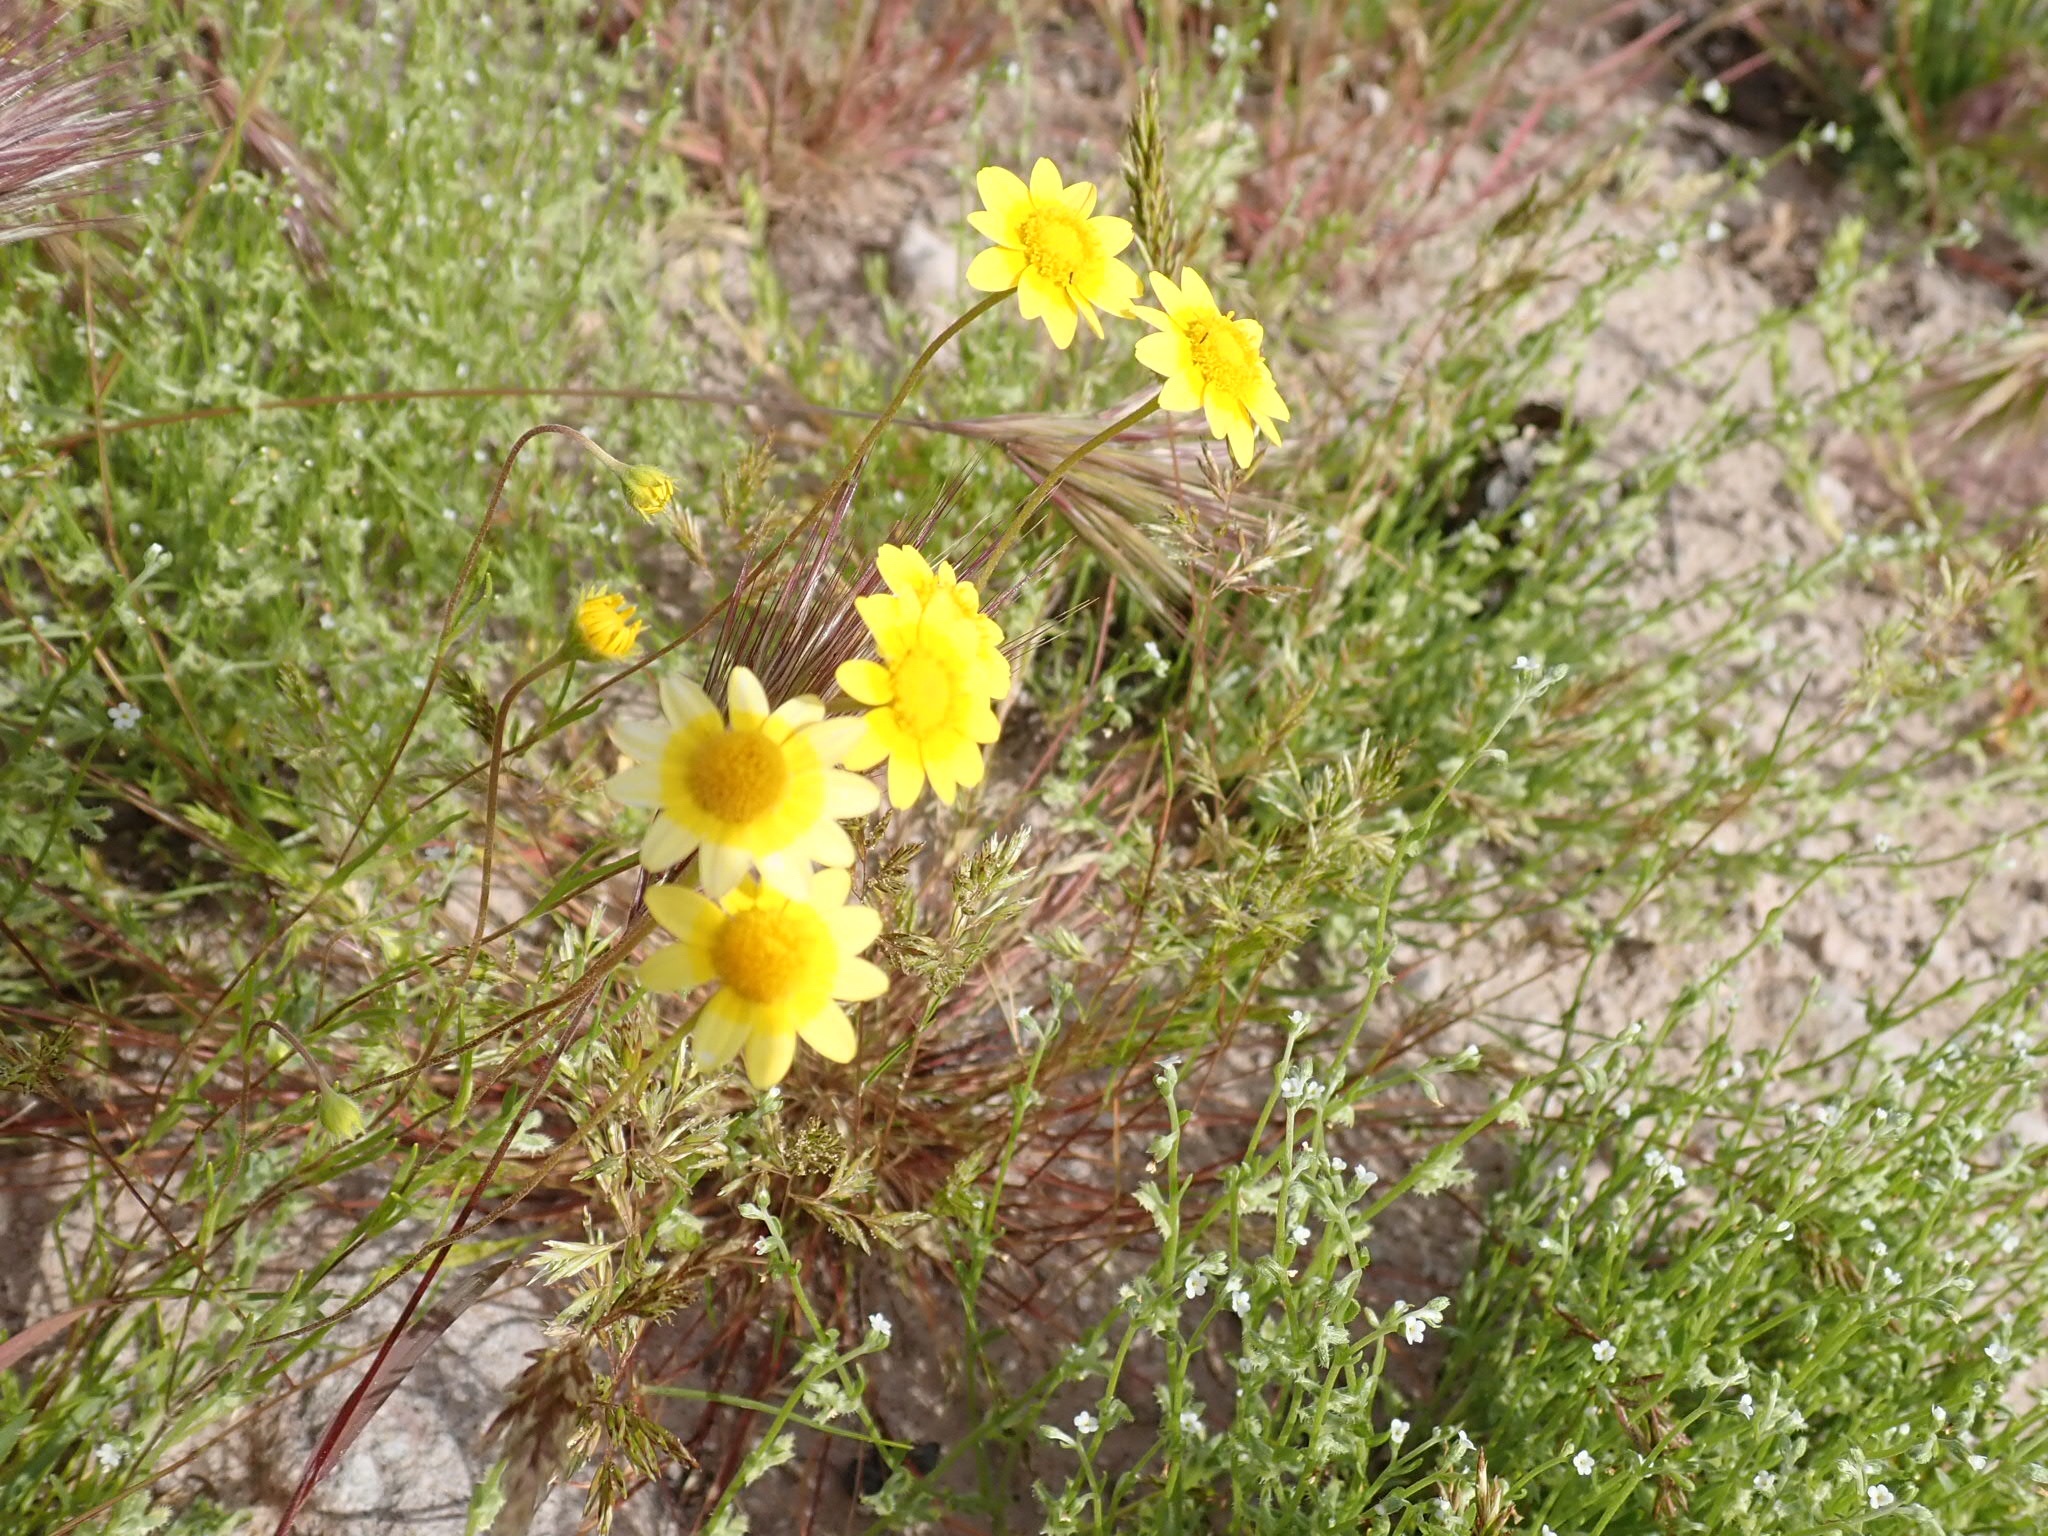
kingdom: Plantae
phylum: Tracheophyta
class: Magnoliopsida
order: Asterales
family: Asteraceae
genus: Lasthenia
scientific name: Lasthenia gracilis
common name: Common goldfields
